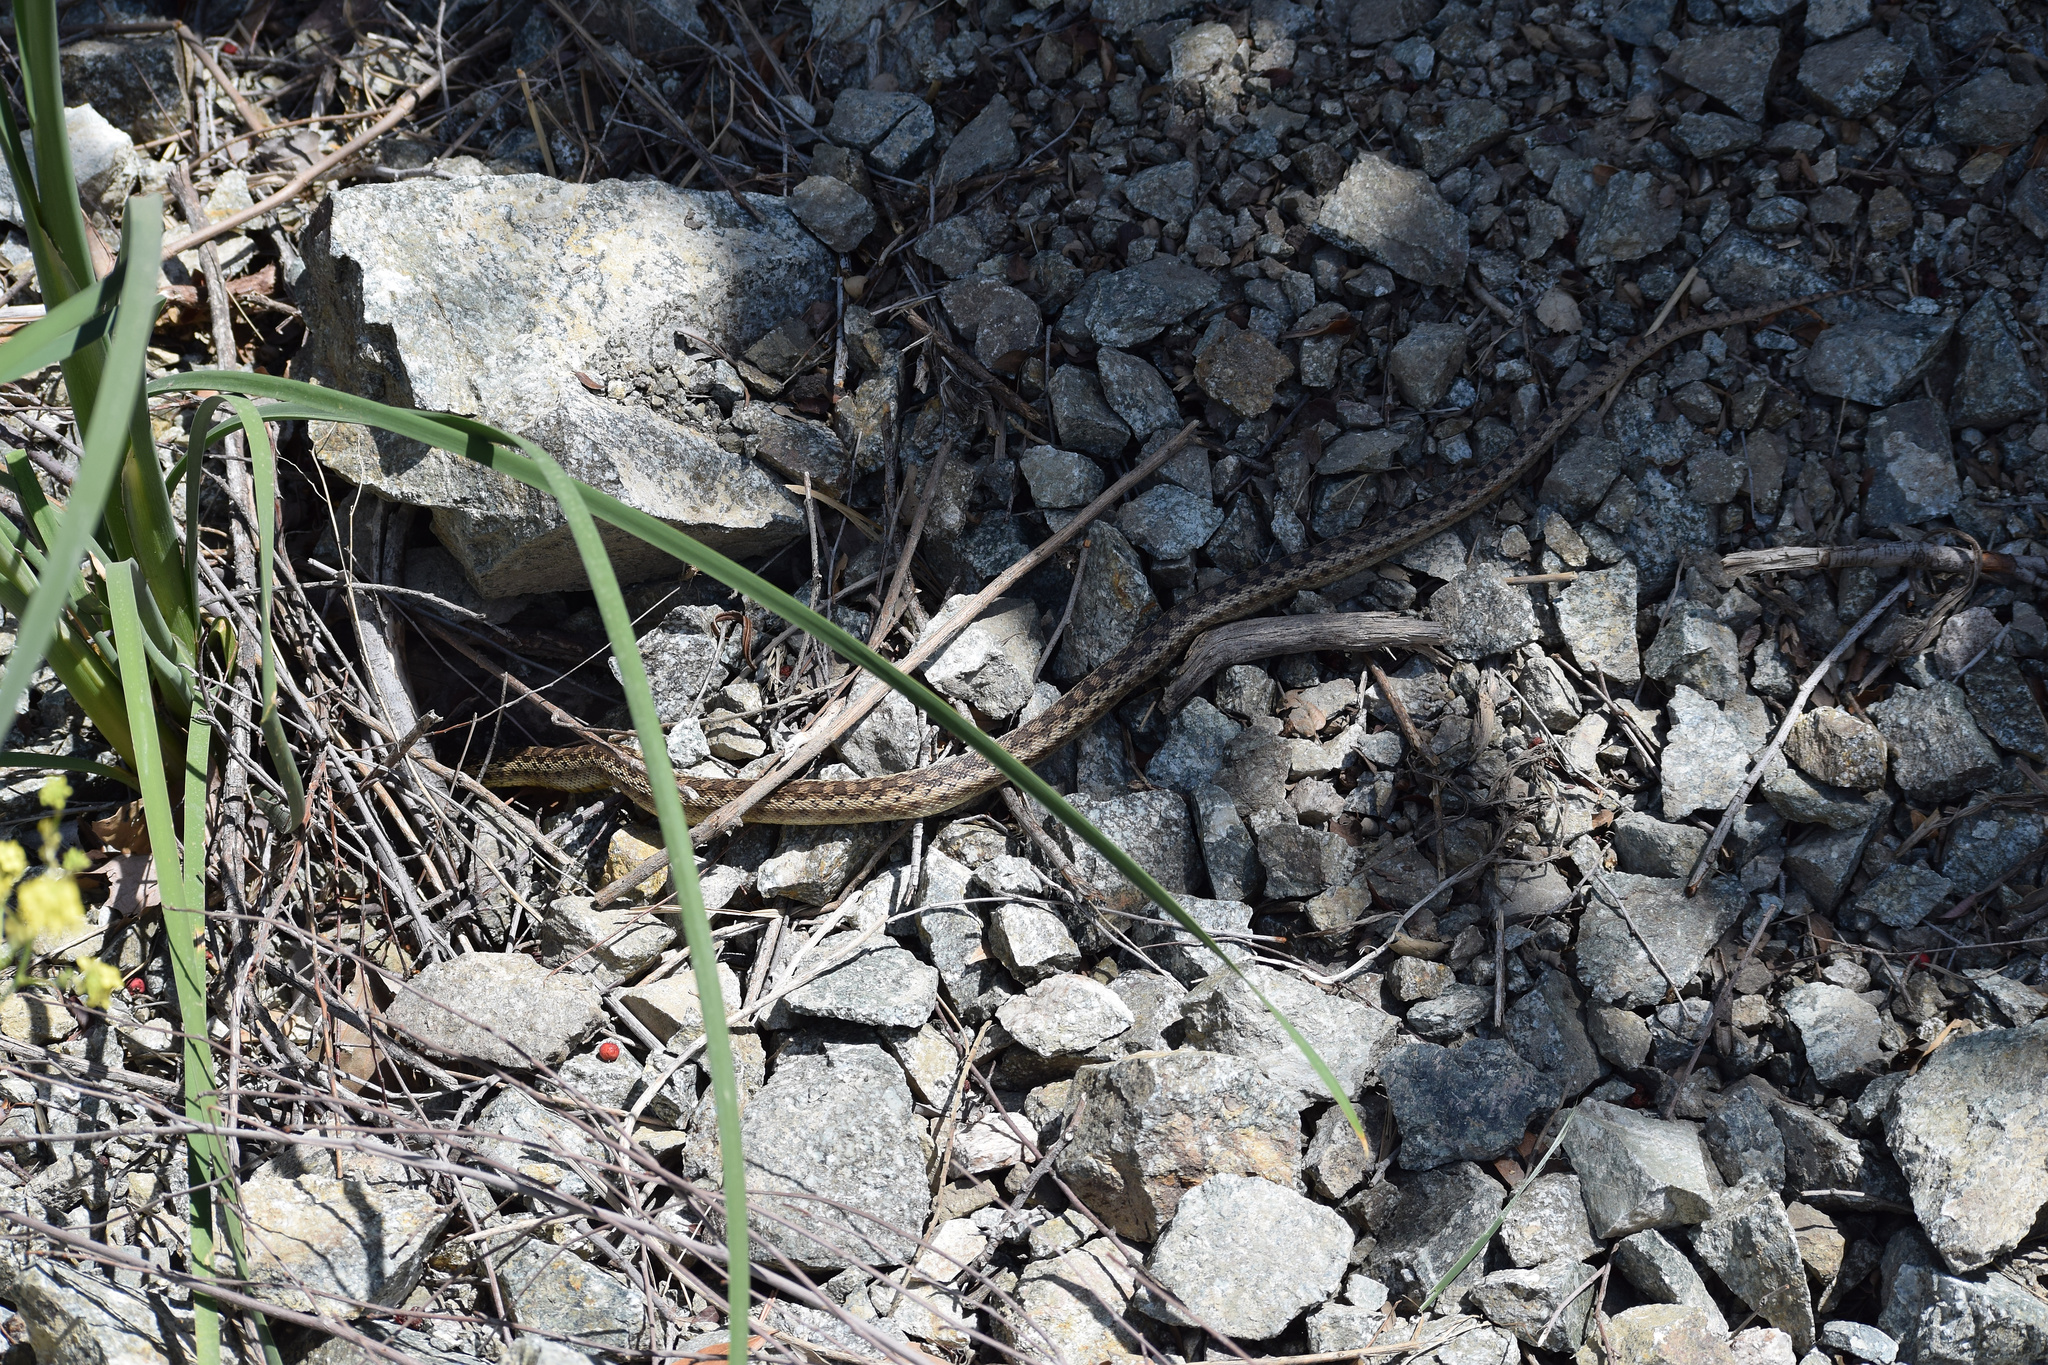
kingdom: Animalia
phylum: Chordata
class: Squamata
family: Colubridae
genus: Pituophis
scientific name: Pituophis catenifer
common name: Gopher snake
